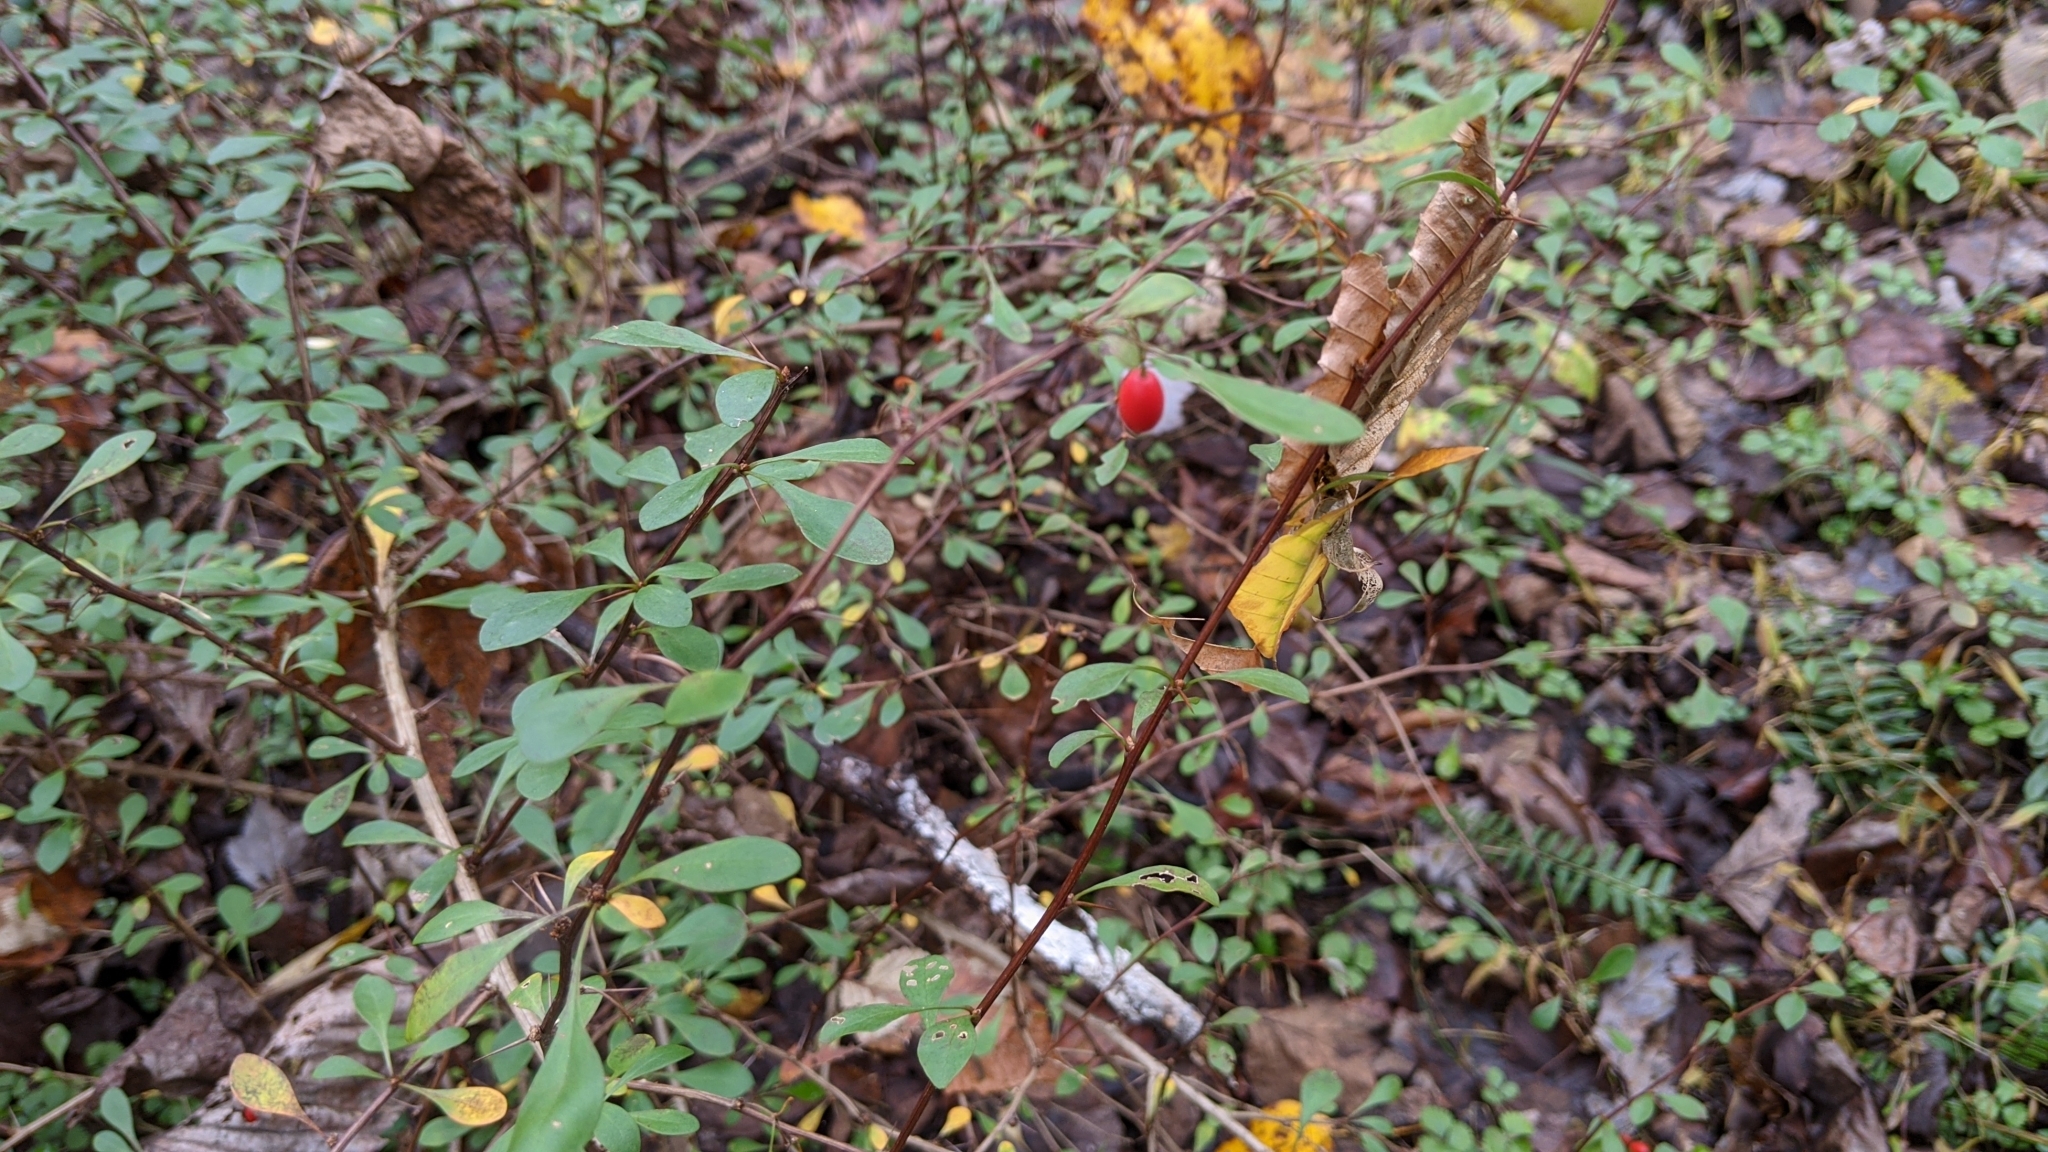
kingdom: Plantae
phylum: Tracheophyta
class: Magnoliopsida
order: Ranunculales
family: Berberidaceae
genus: Berberis
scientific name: Berberis thunbergii
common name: Japanese barberry
